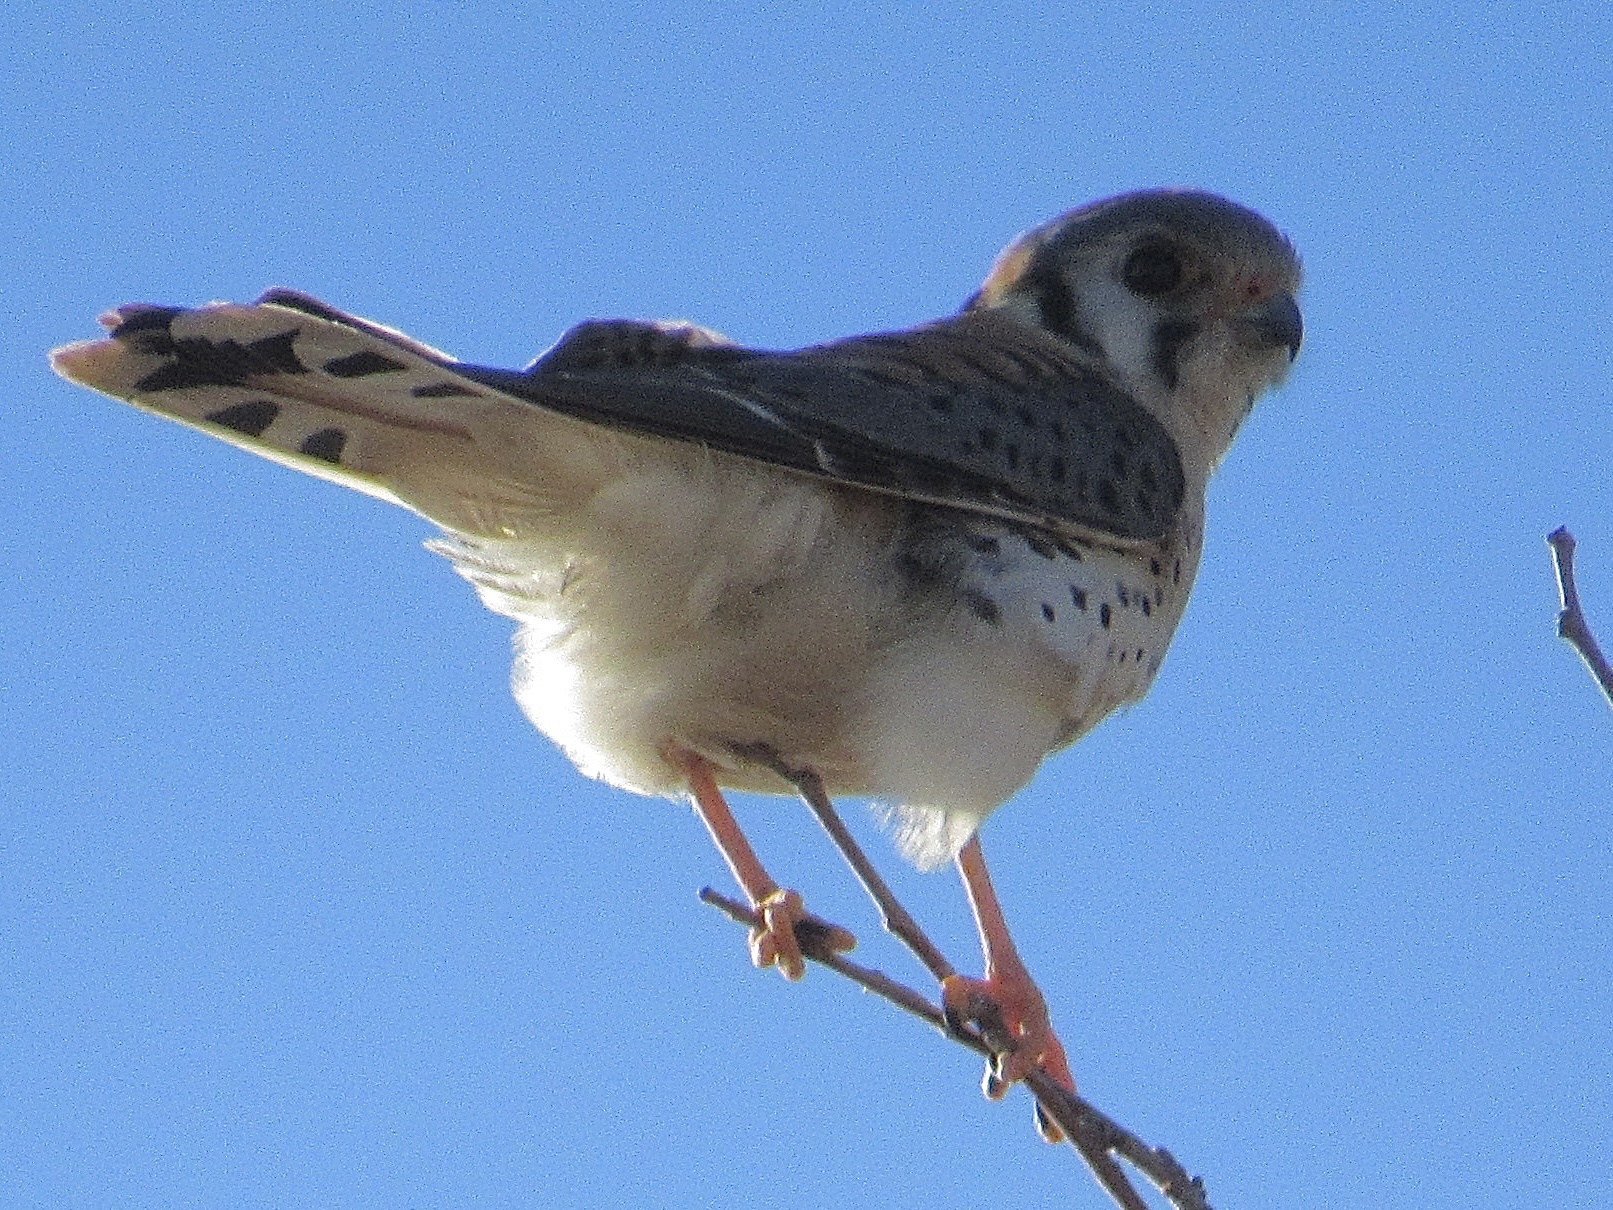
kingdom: Animalia
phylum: Chordata
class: Aves
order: Falconiformes
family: Falconidae
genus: Falco
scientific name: Falco sparverius
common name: American kestrel
